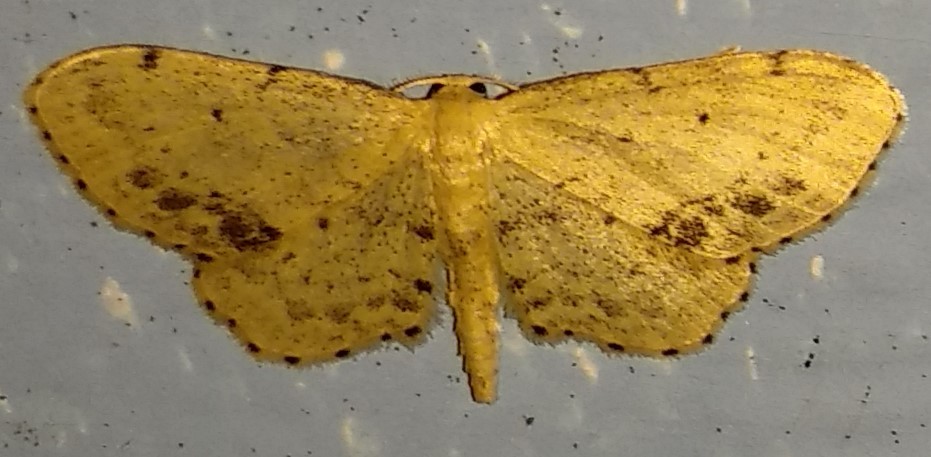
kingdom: Animalia
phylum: Arthropoda
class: Insecta
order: Lepidoptera
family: Geometridae
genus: Idaea
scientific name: Idaea dimidiata
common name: Single-dotted wave
